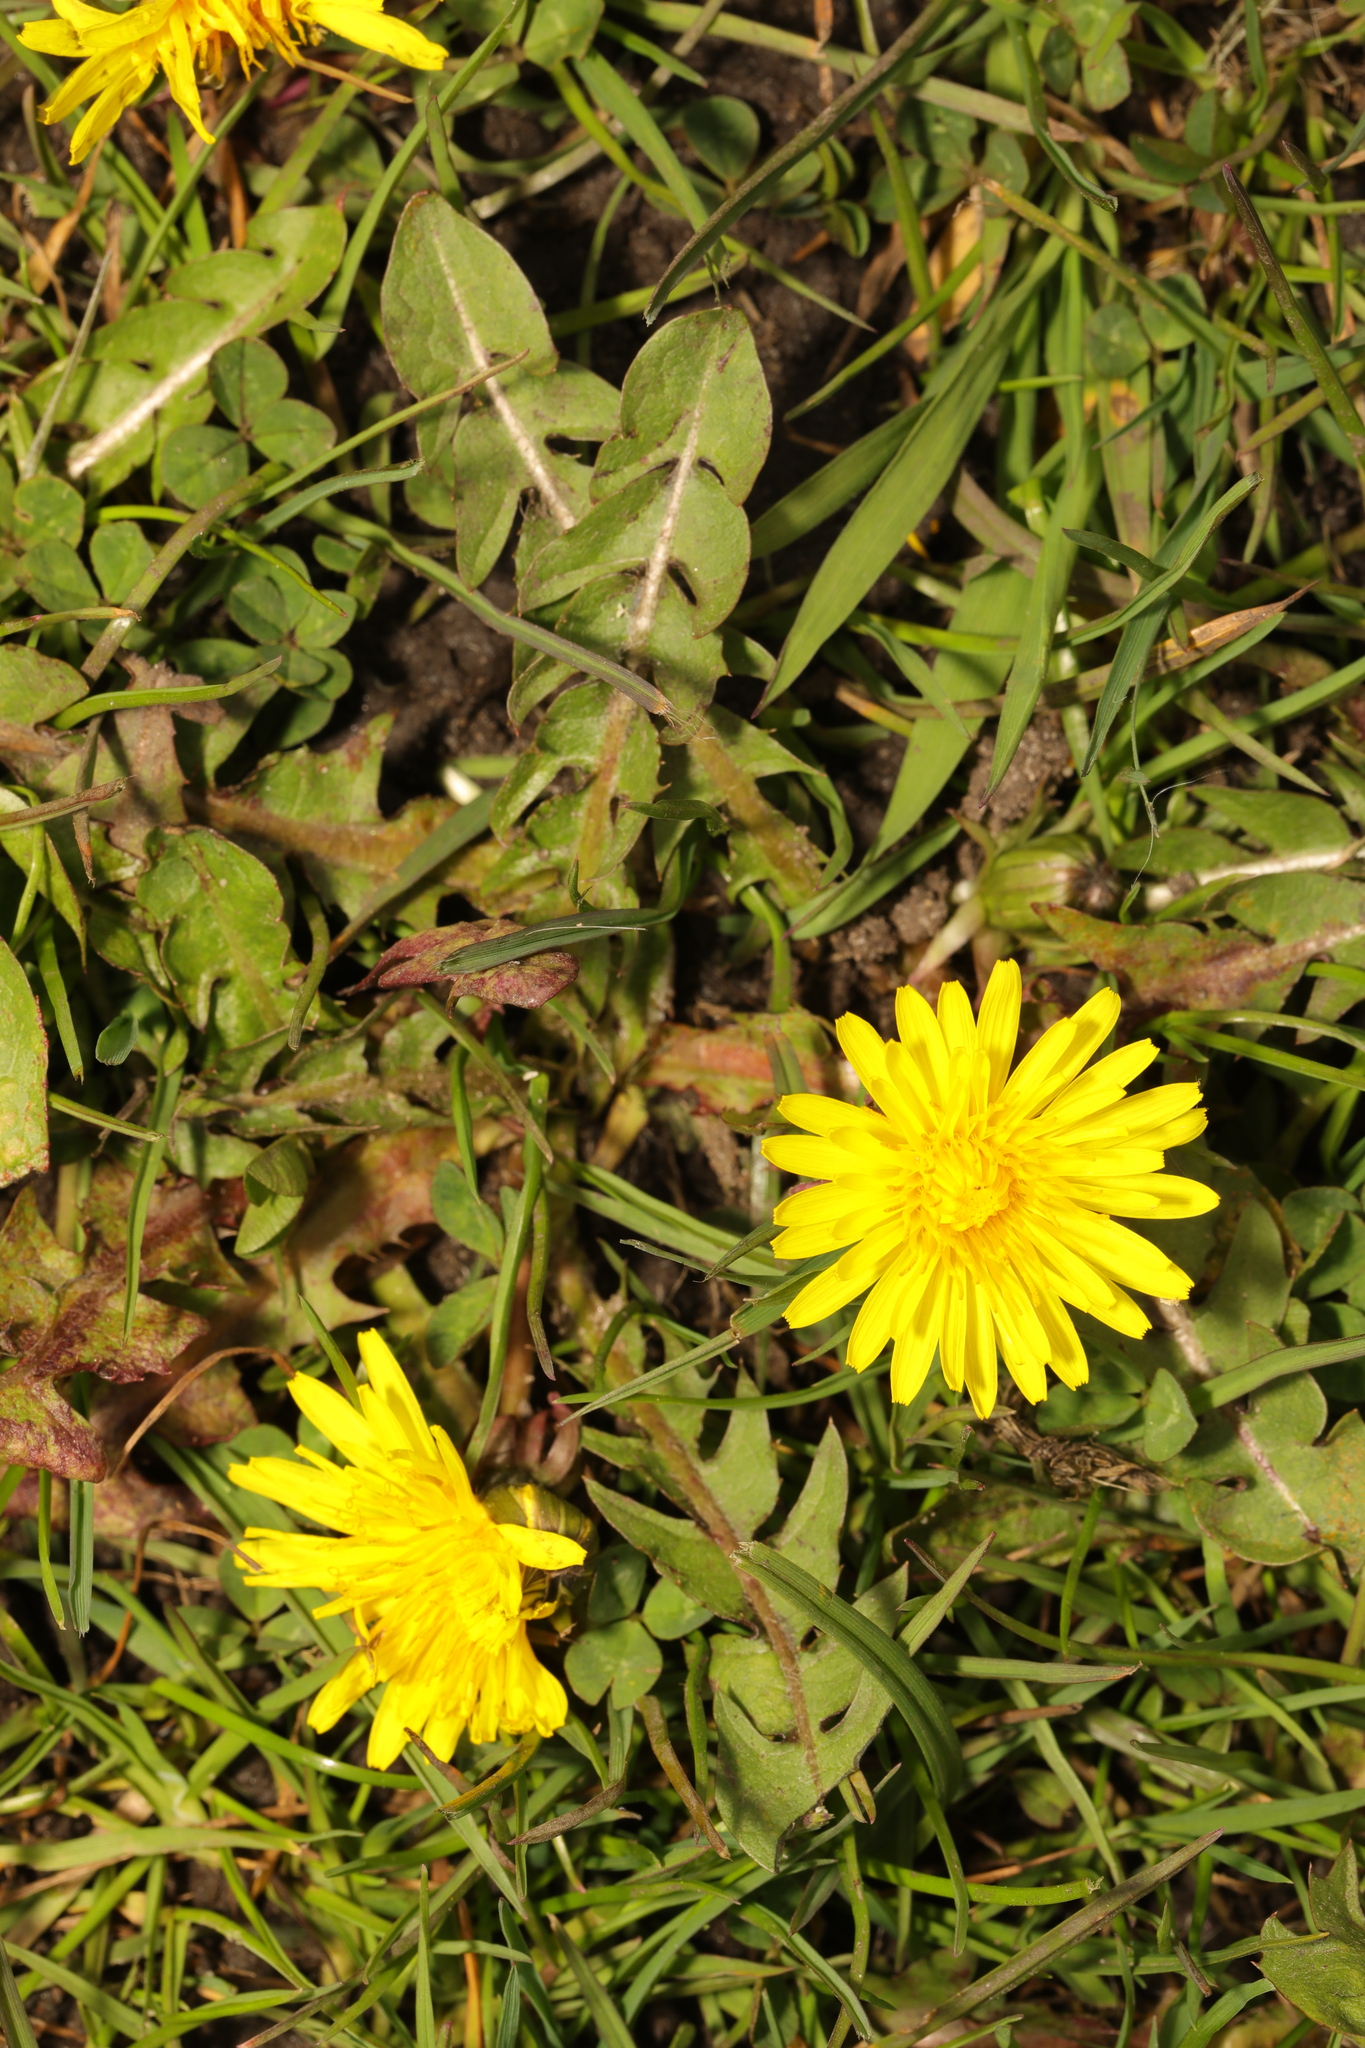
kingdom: Plantae
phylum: Tracheophyta
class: Magnoliopsida
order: Asterales
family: Asteraceae
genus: Taraxacum
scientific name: Taraxacum officinale
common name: Common dandelion
